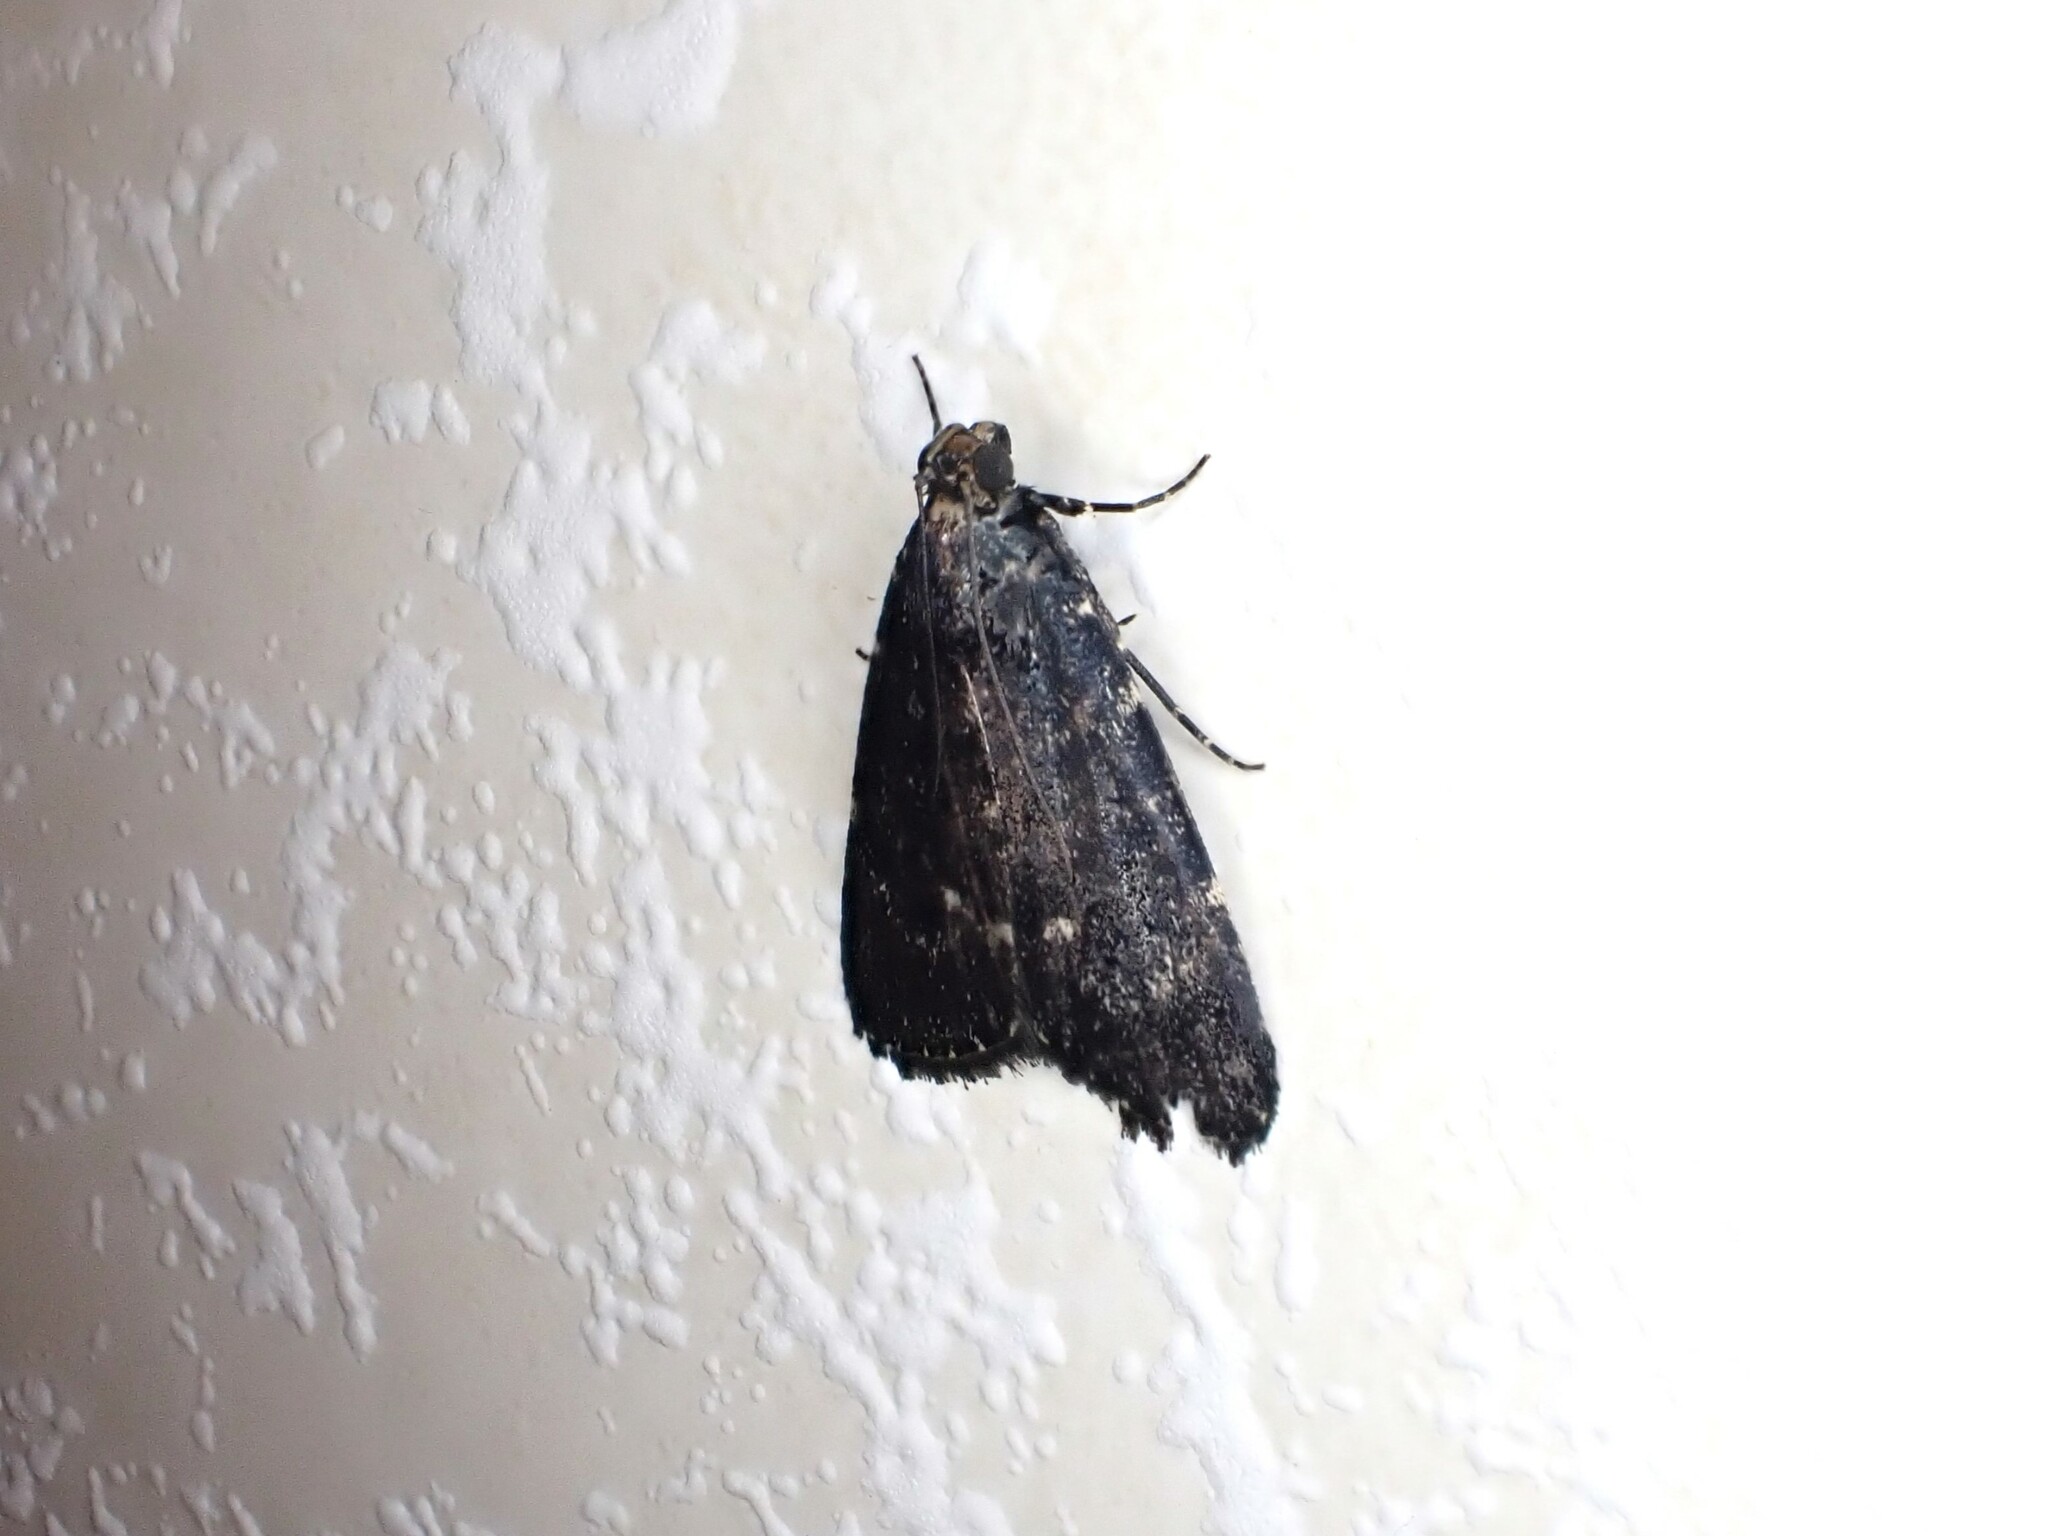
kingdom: Animalia
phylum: Arthropoda
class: Insecta
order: Lepidoptera
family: Pyralidae
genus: Stericta
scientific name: Stericta carbonalis
